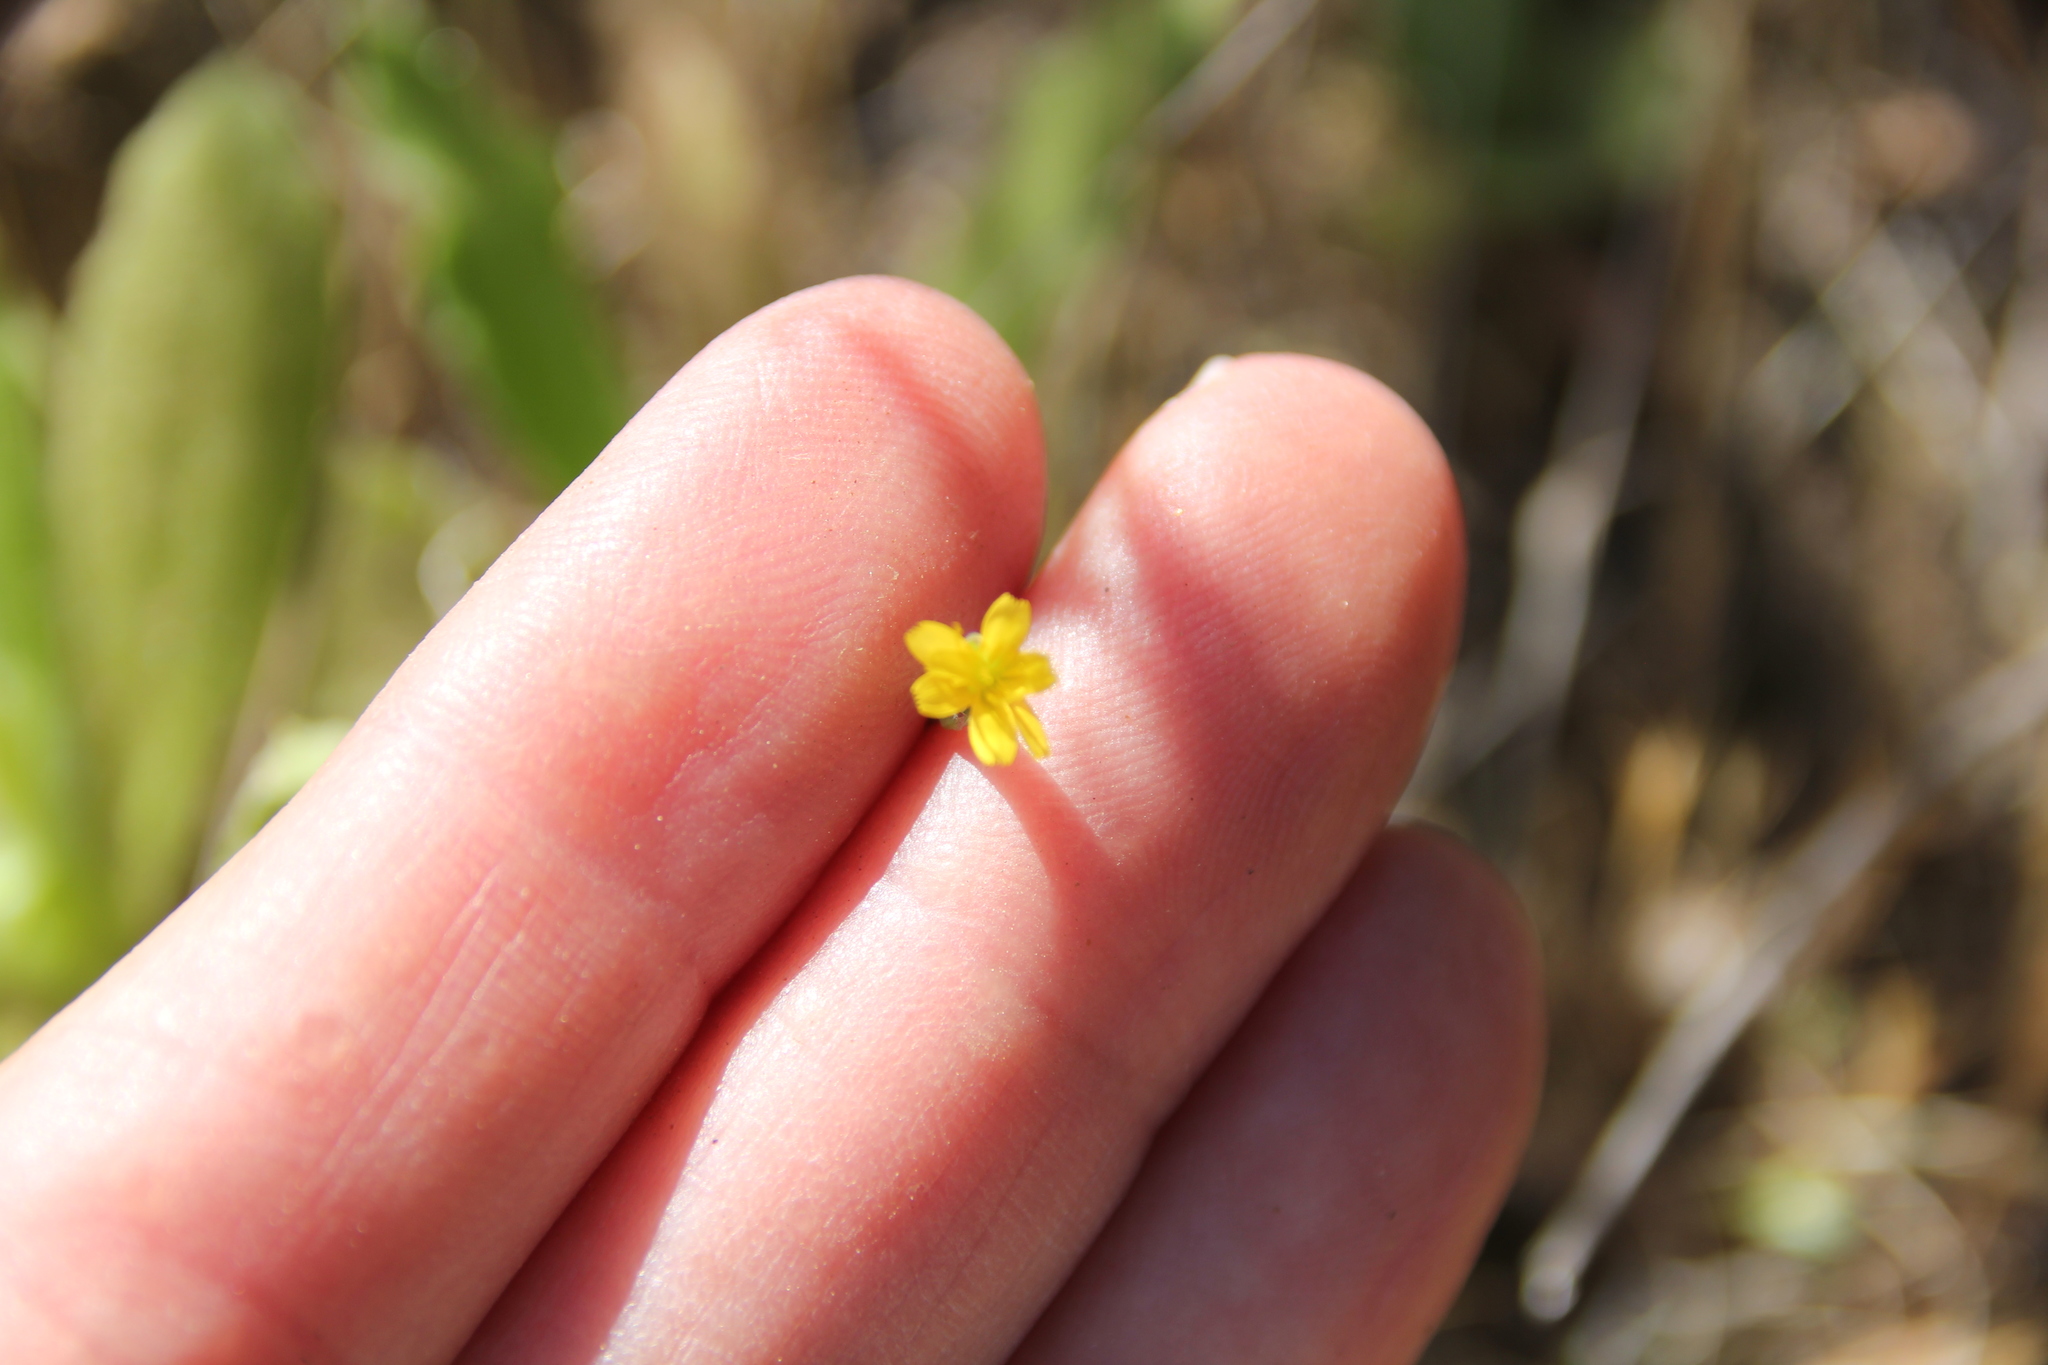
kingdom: Plantae
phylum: Tracheophyta
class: Magnoliopsida
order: Asterales
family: Asteraceae
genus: Hypochaeris
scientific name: Hypochaeris glabra
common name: Smooth catsear
